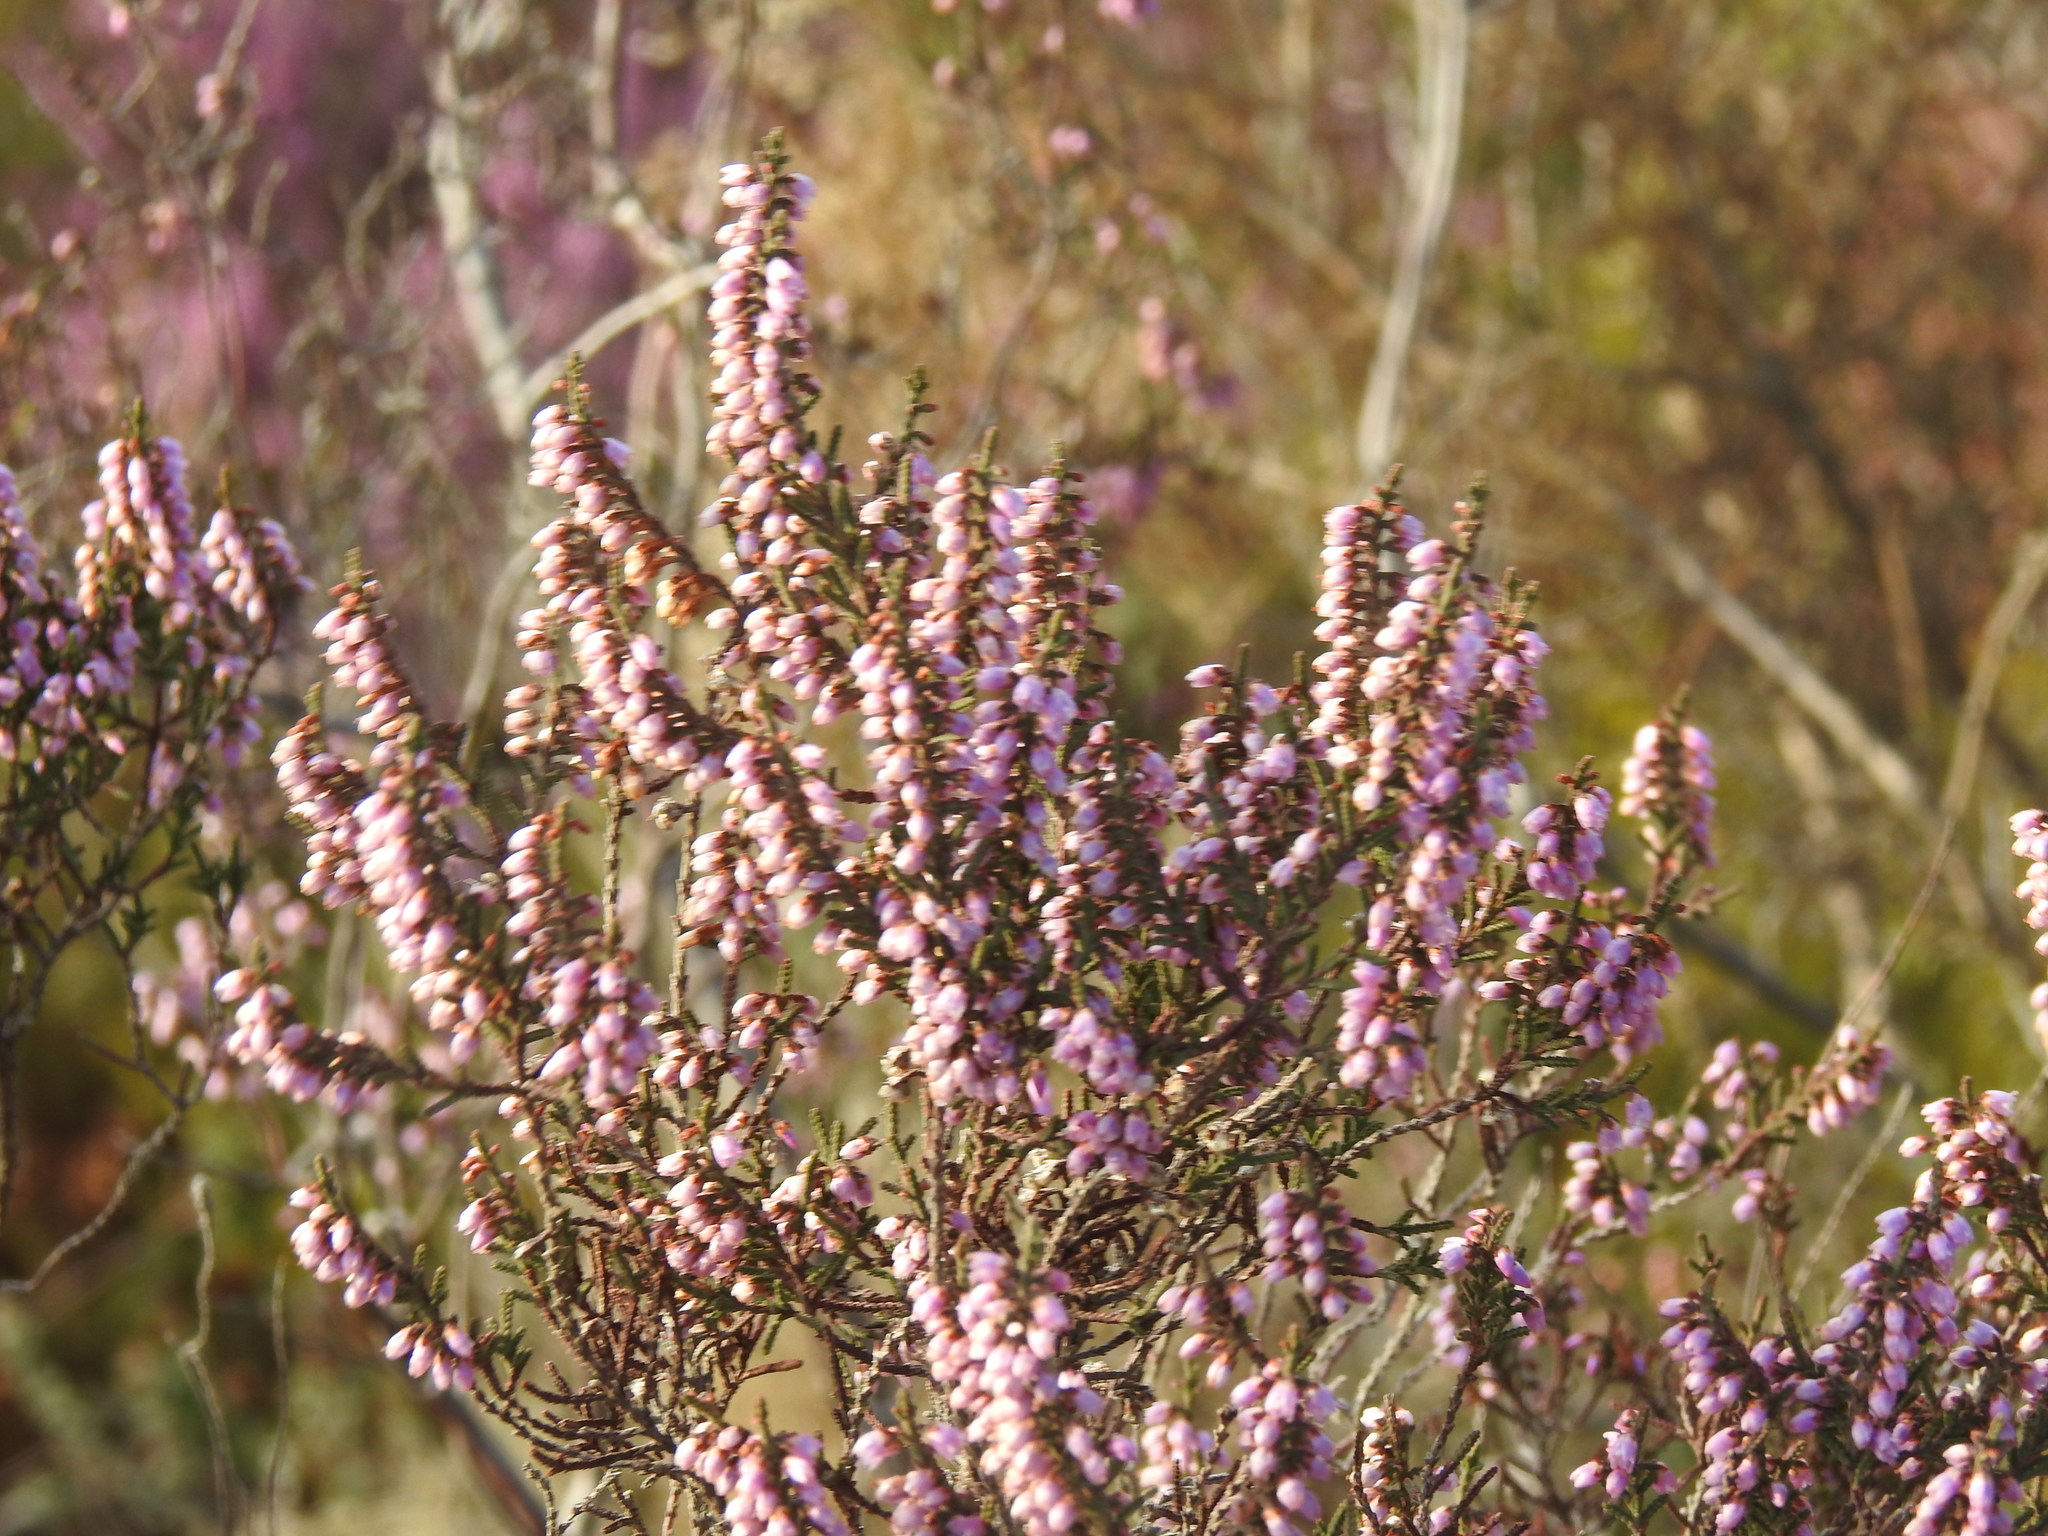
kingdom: Plantae
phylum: Tracheophyta
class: Magnoliopsida
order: Ericales
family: Ericaceae
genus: Calluna
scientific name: Calluna vulgaris
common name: Heather
